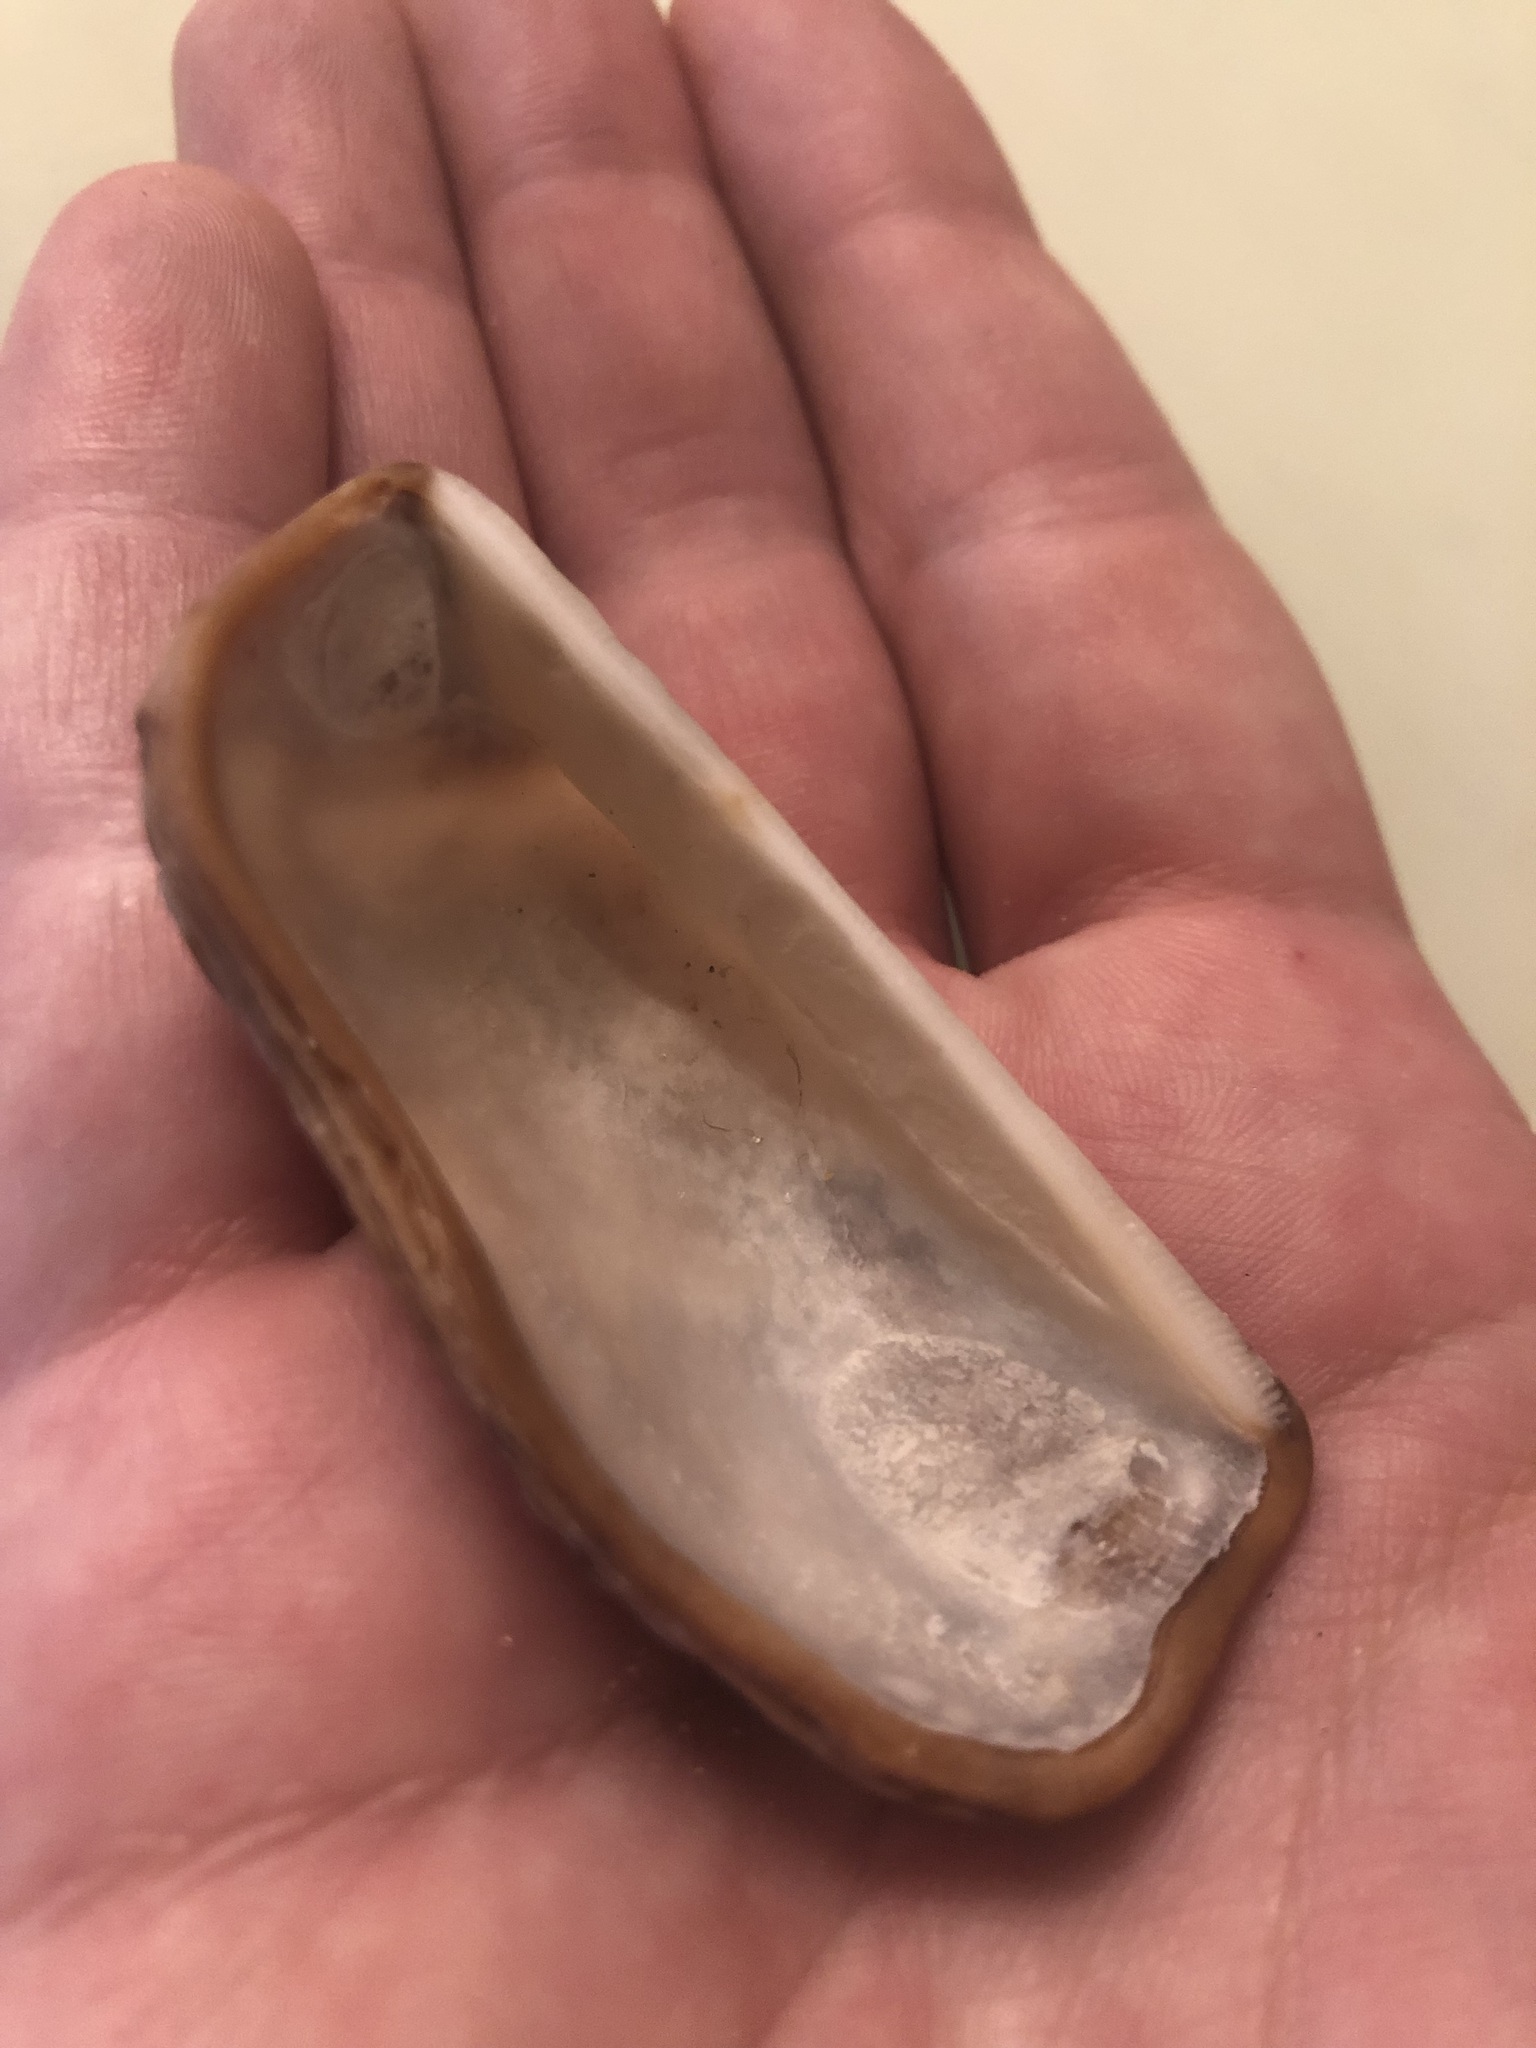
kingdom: Animalia
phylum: Mollusca
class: Bivalvia
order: Arcida
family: Arcidae
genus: Arca
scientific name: Arca zebra
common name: Atlantic turkey wing
